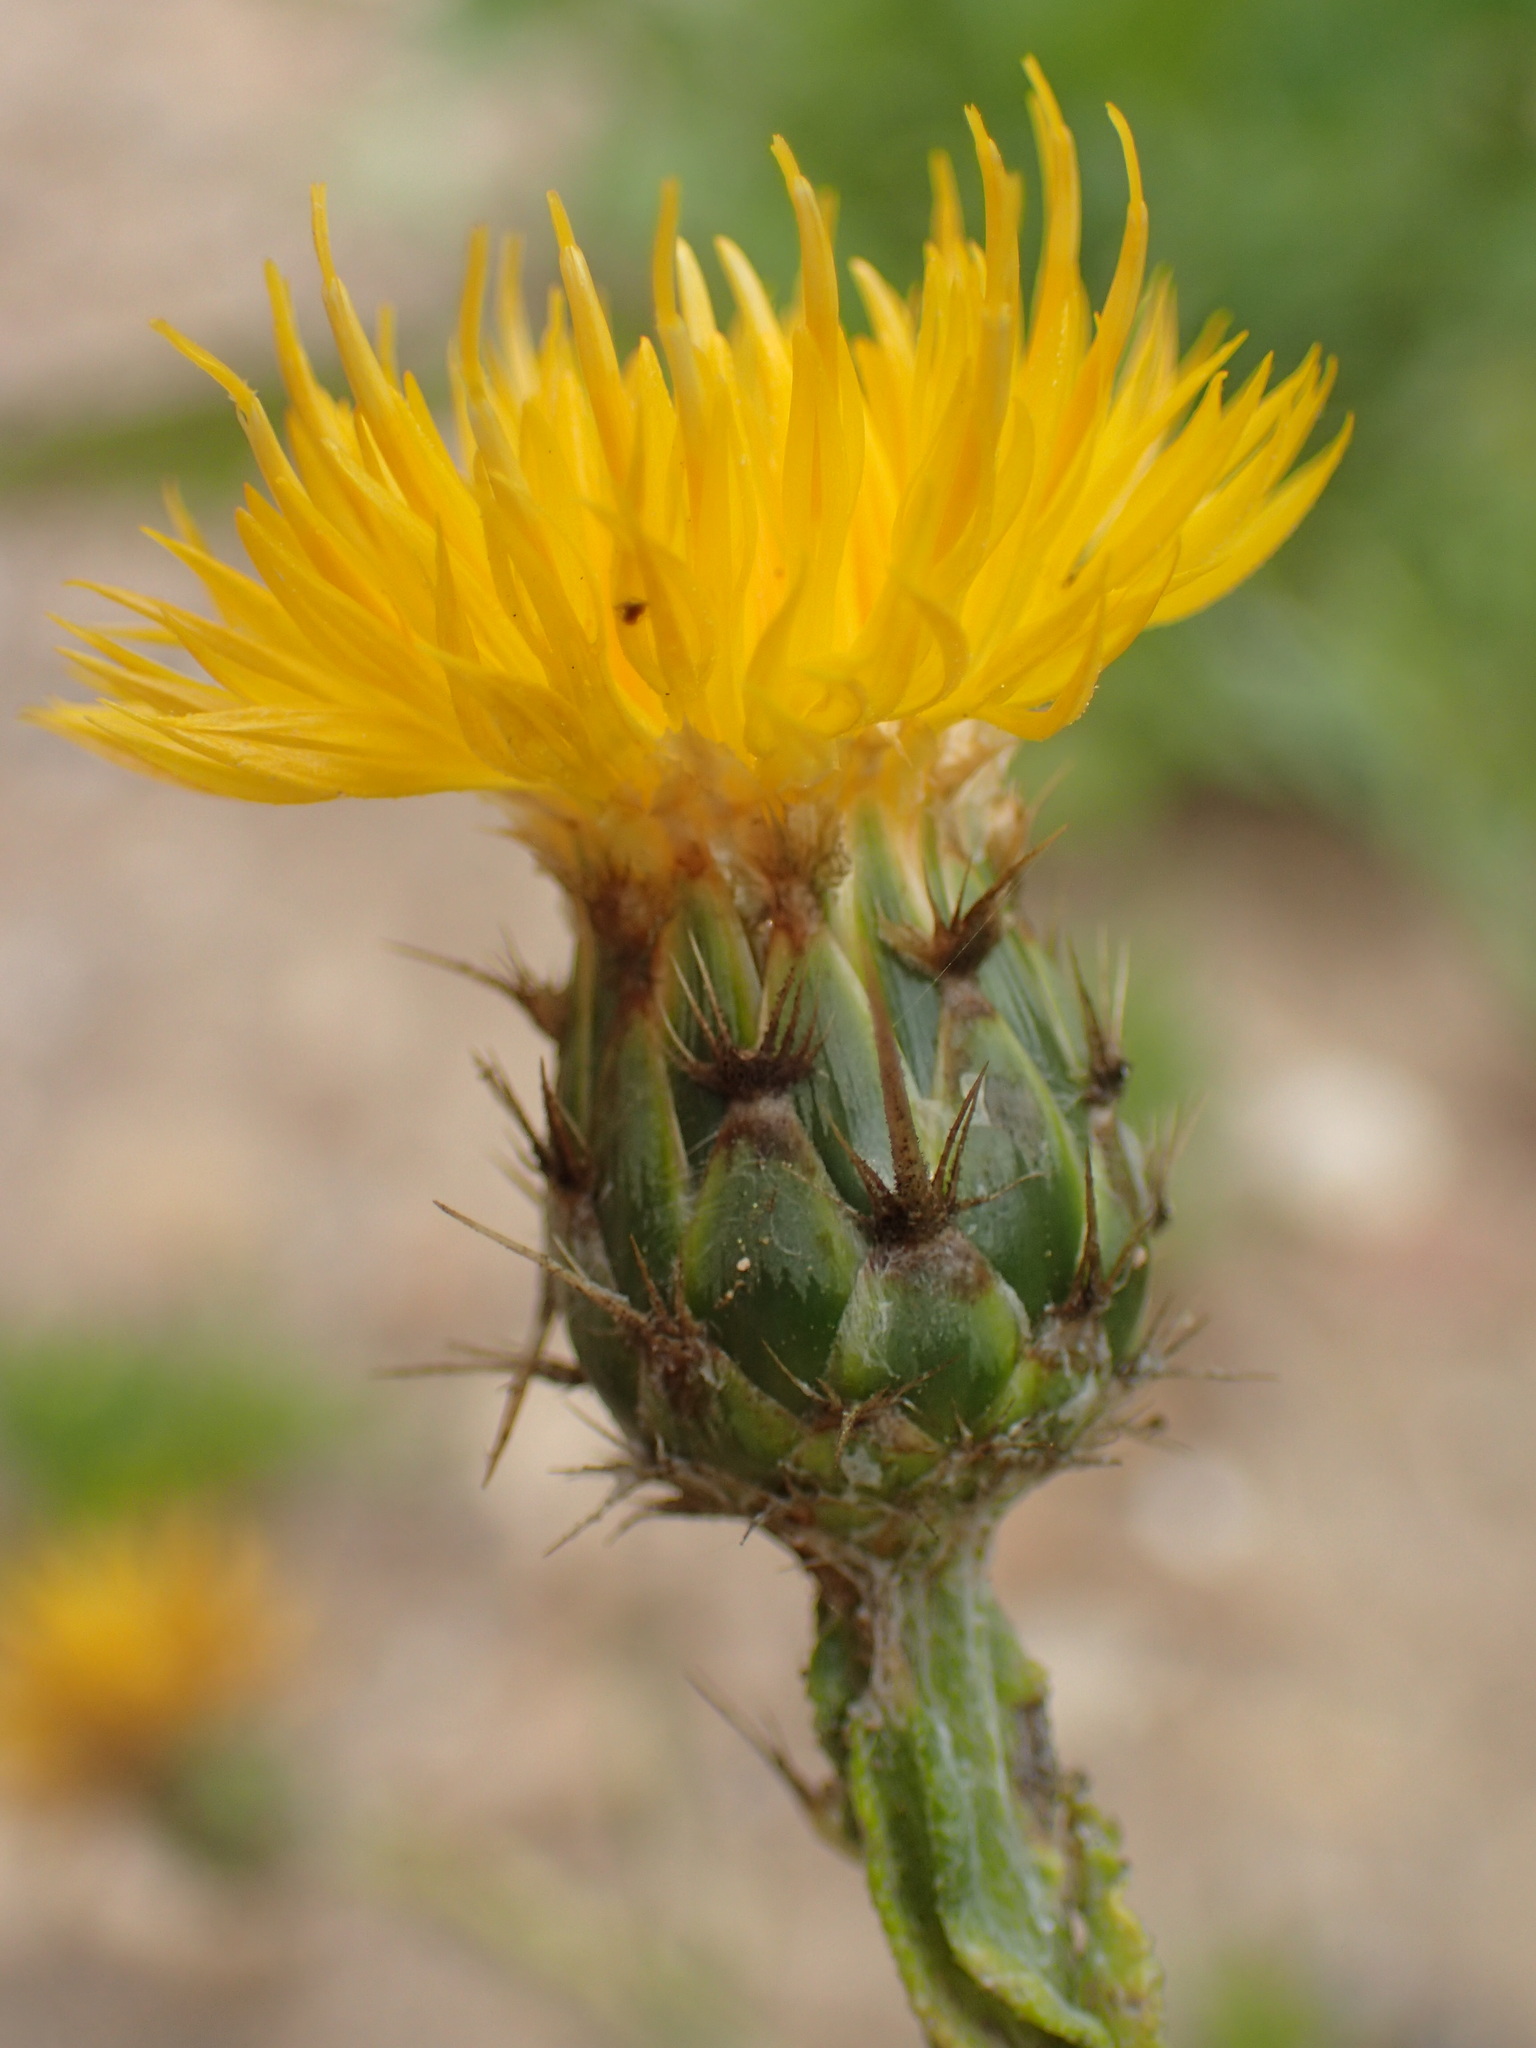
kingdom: Plantae
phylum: Tracheophyta
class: Magnoliopsida
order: Asterales
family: Asteraceae
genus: Centaurea
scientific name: Centaurea melitensis
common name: Maltese star-thistle
